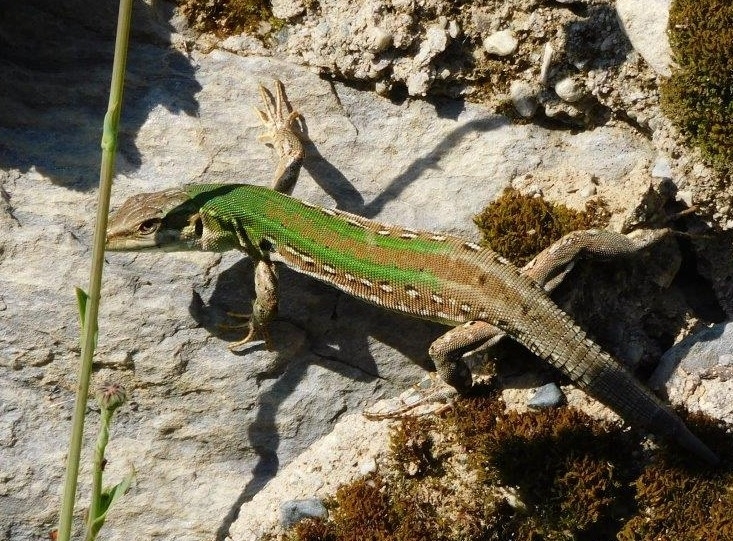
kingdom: Animalia
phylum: Chordata
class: Squamata
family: Lacertidae
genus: Podarcis
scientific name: Podarcis siculus
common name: Italian wall lizard
